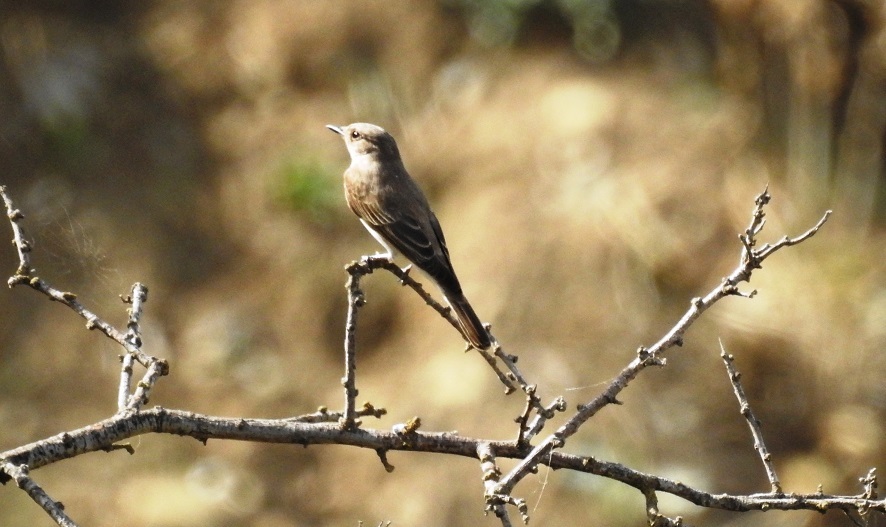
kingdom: Animalia
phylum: Chordata
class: Aves
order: Passeriformes
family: Muscicapidae
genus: Muscicapa
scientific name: Muscicapa striata
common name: Spotted flycatcher
